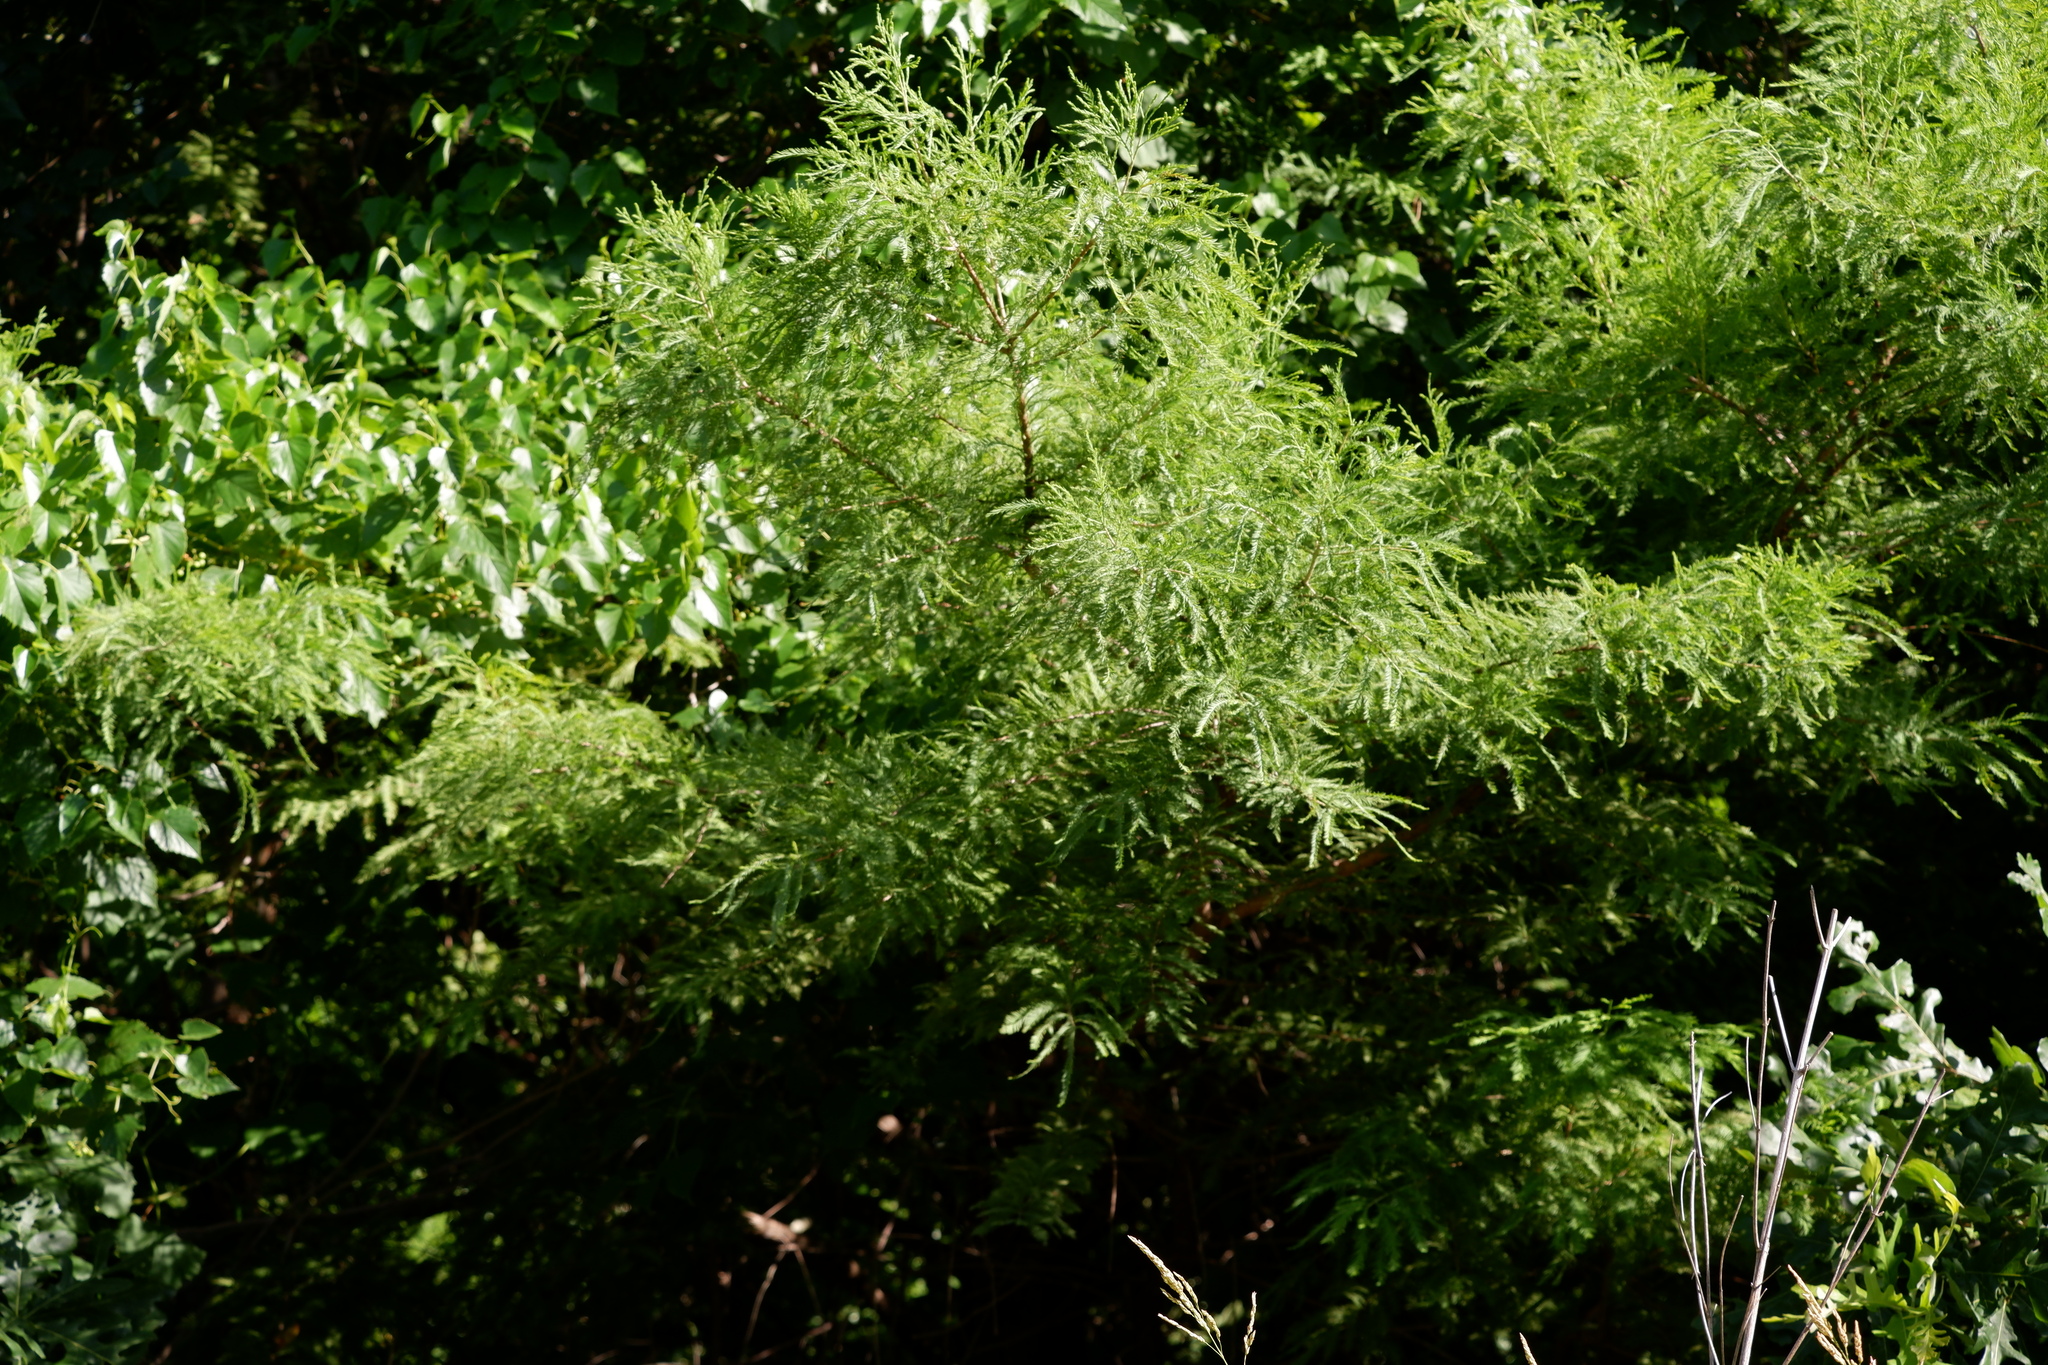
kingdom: Plantae
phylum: Tracheophyta
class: Pinopsida
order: Pinales
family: Cupressaceae
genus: Taxodium
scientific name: Taxodium distichum
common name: Bald cypress
